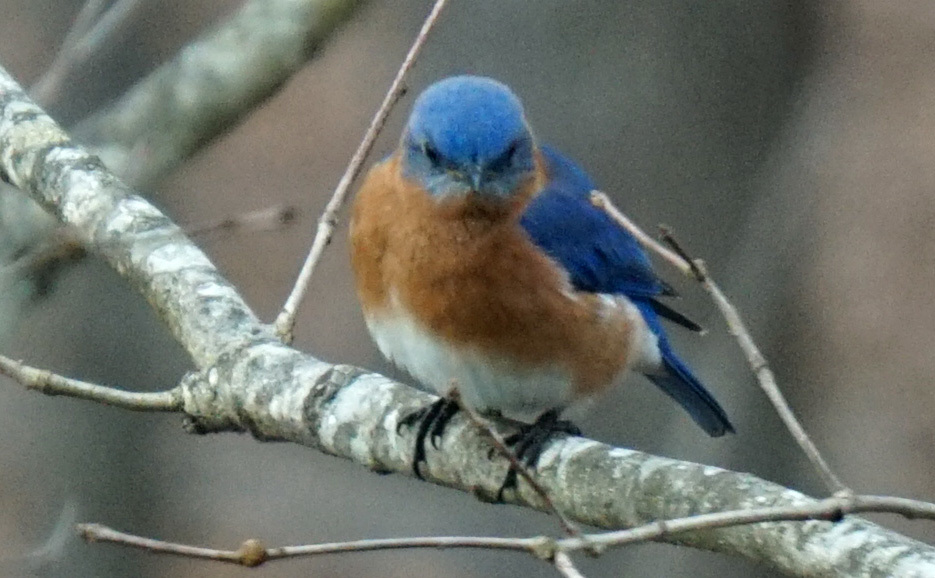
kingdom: Animalia
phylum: Chordata
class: Aves
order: Passeriformes
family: Turdidae
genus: Sialia
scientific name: Sialia sialis
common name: Eastern bluebird
